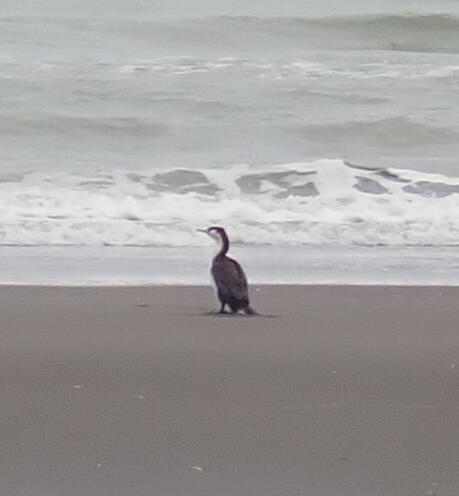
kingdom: Animalia
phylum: Chordata
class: Aves
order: Suliformes
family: Phalacrocoracidae
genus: Phalacrocorax
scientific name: Phalacrocorax varius
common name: Pied cormorant
